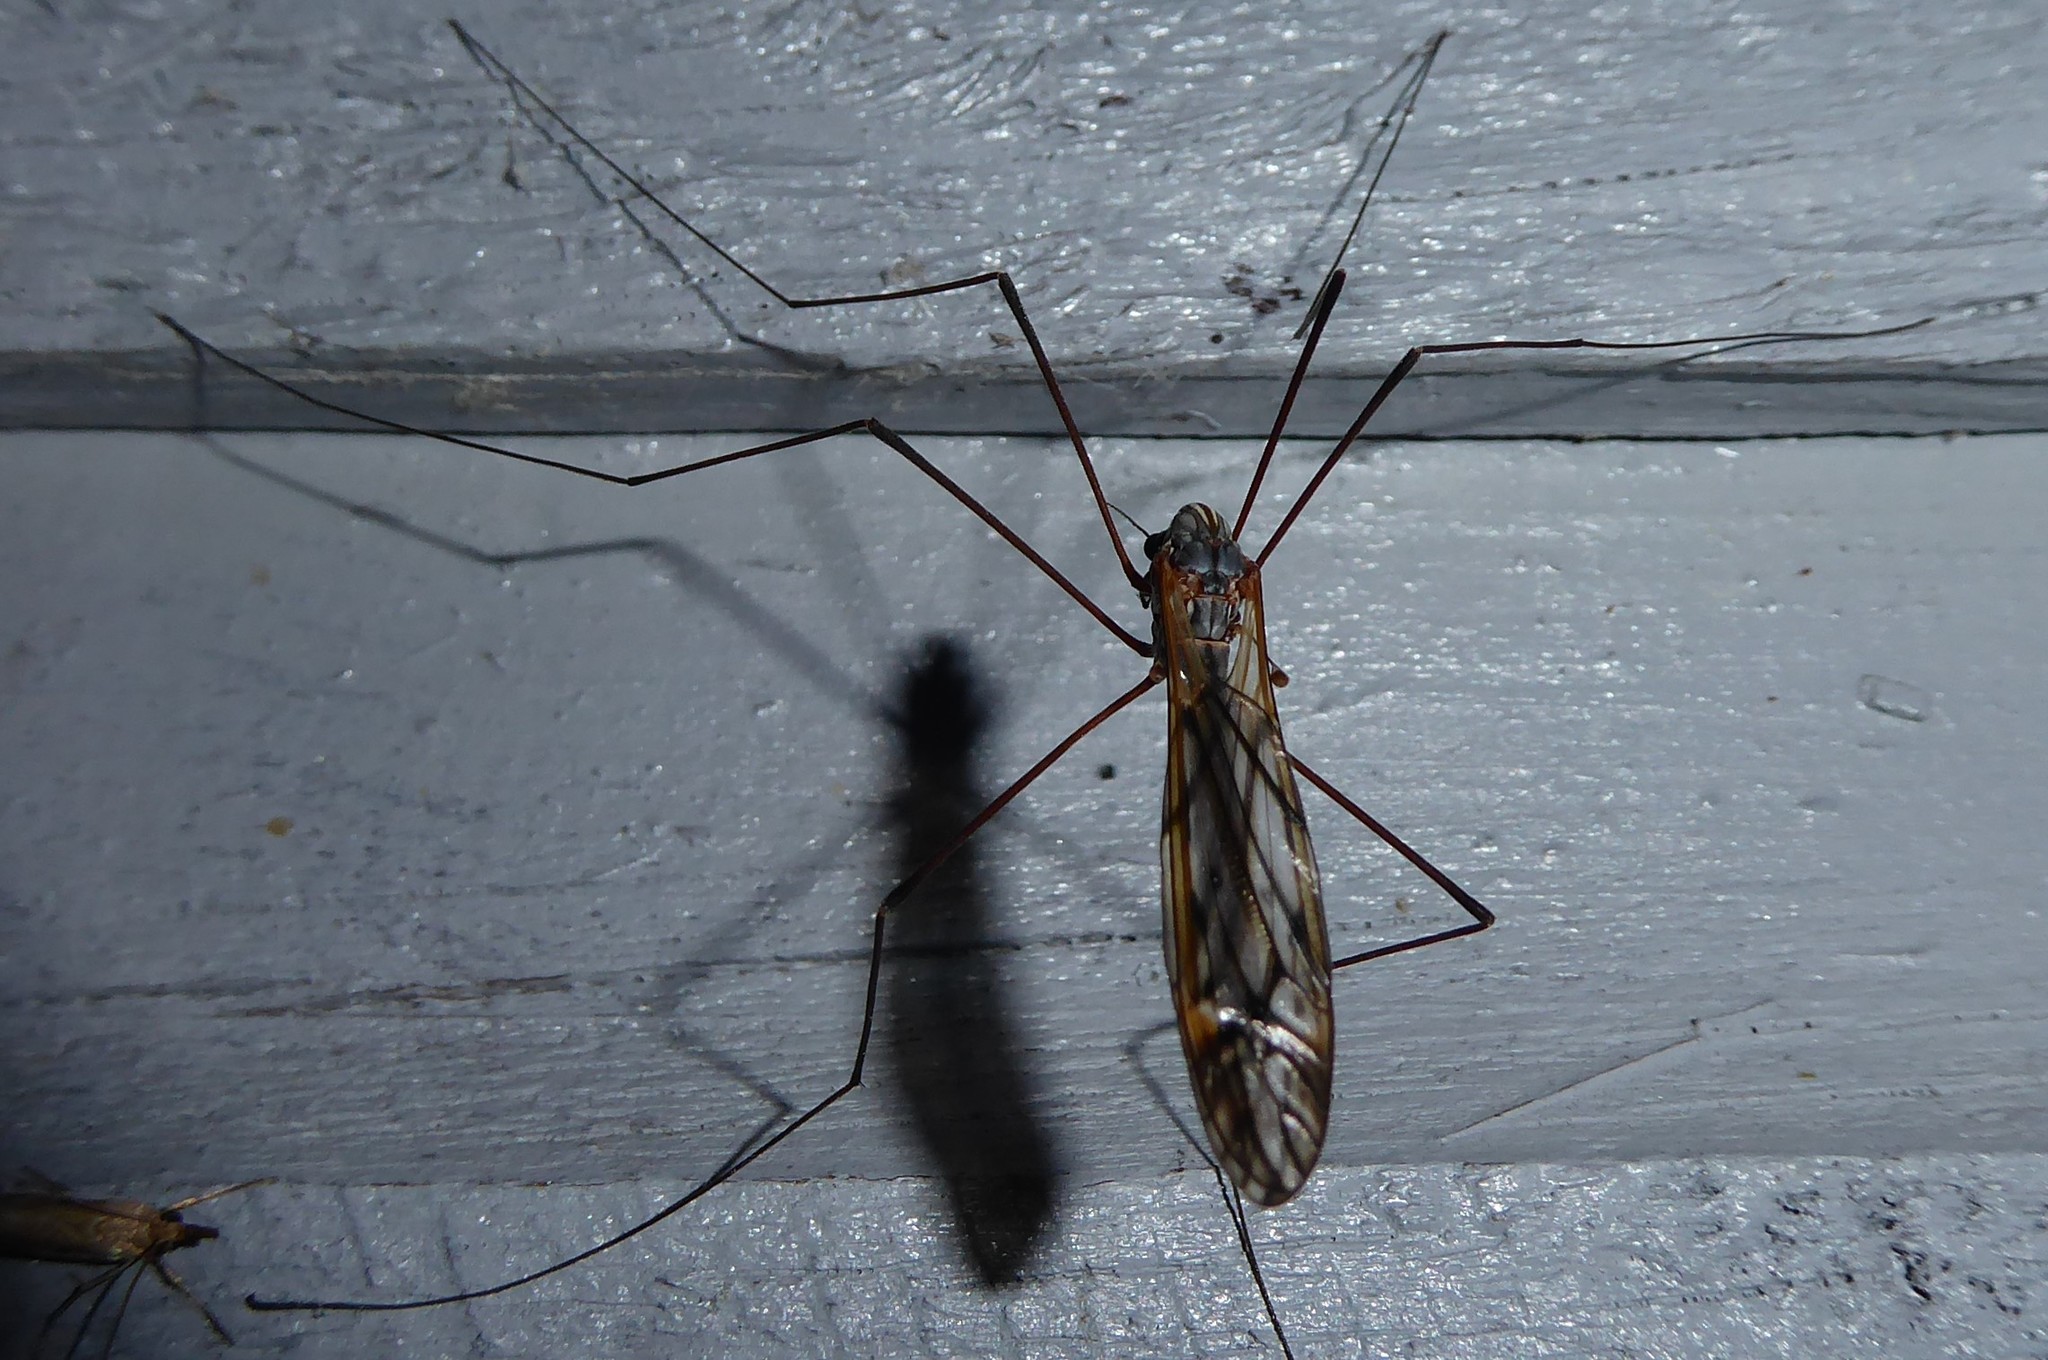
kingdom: Animalia
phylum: Arthropoda
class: Insecta
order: Diptera
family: Tipulidae
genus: Zelandotipula
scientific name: Zelandotipula novarae
